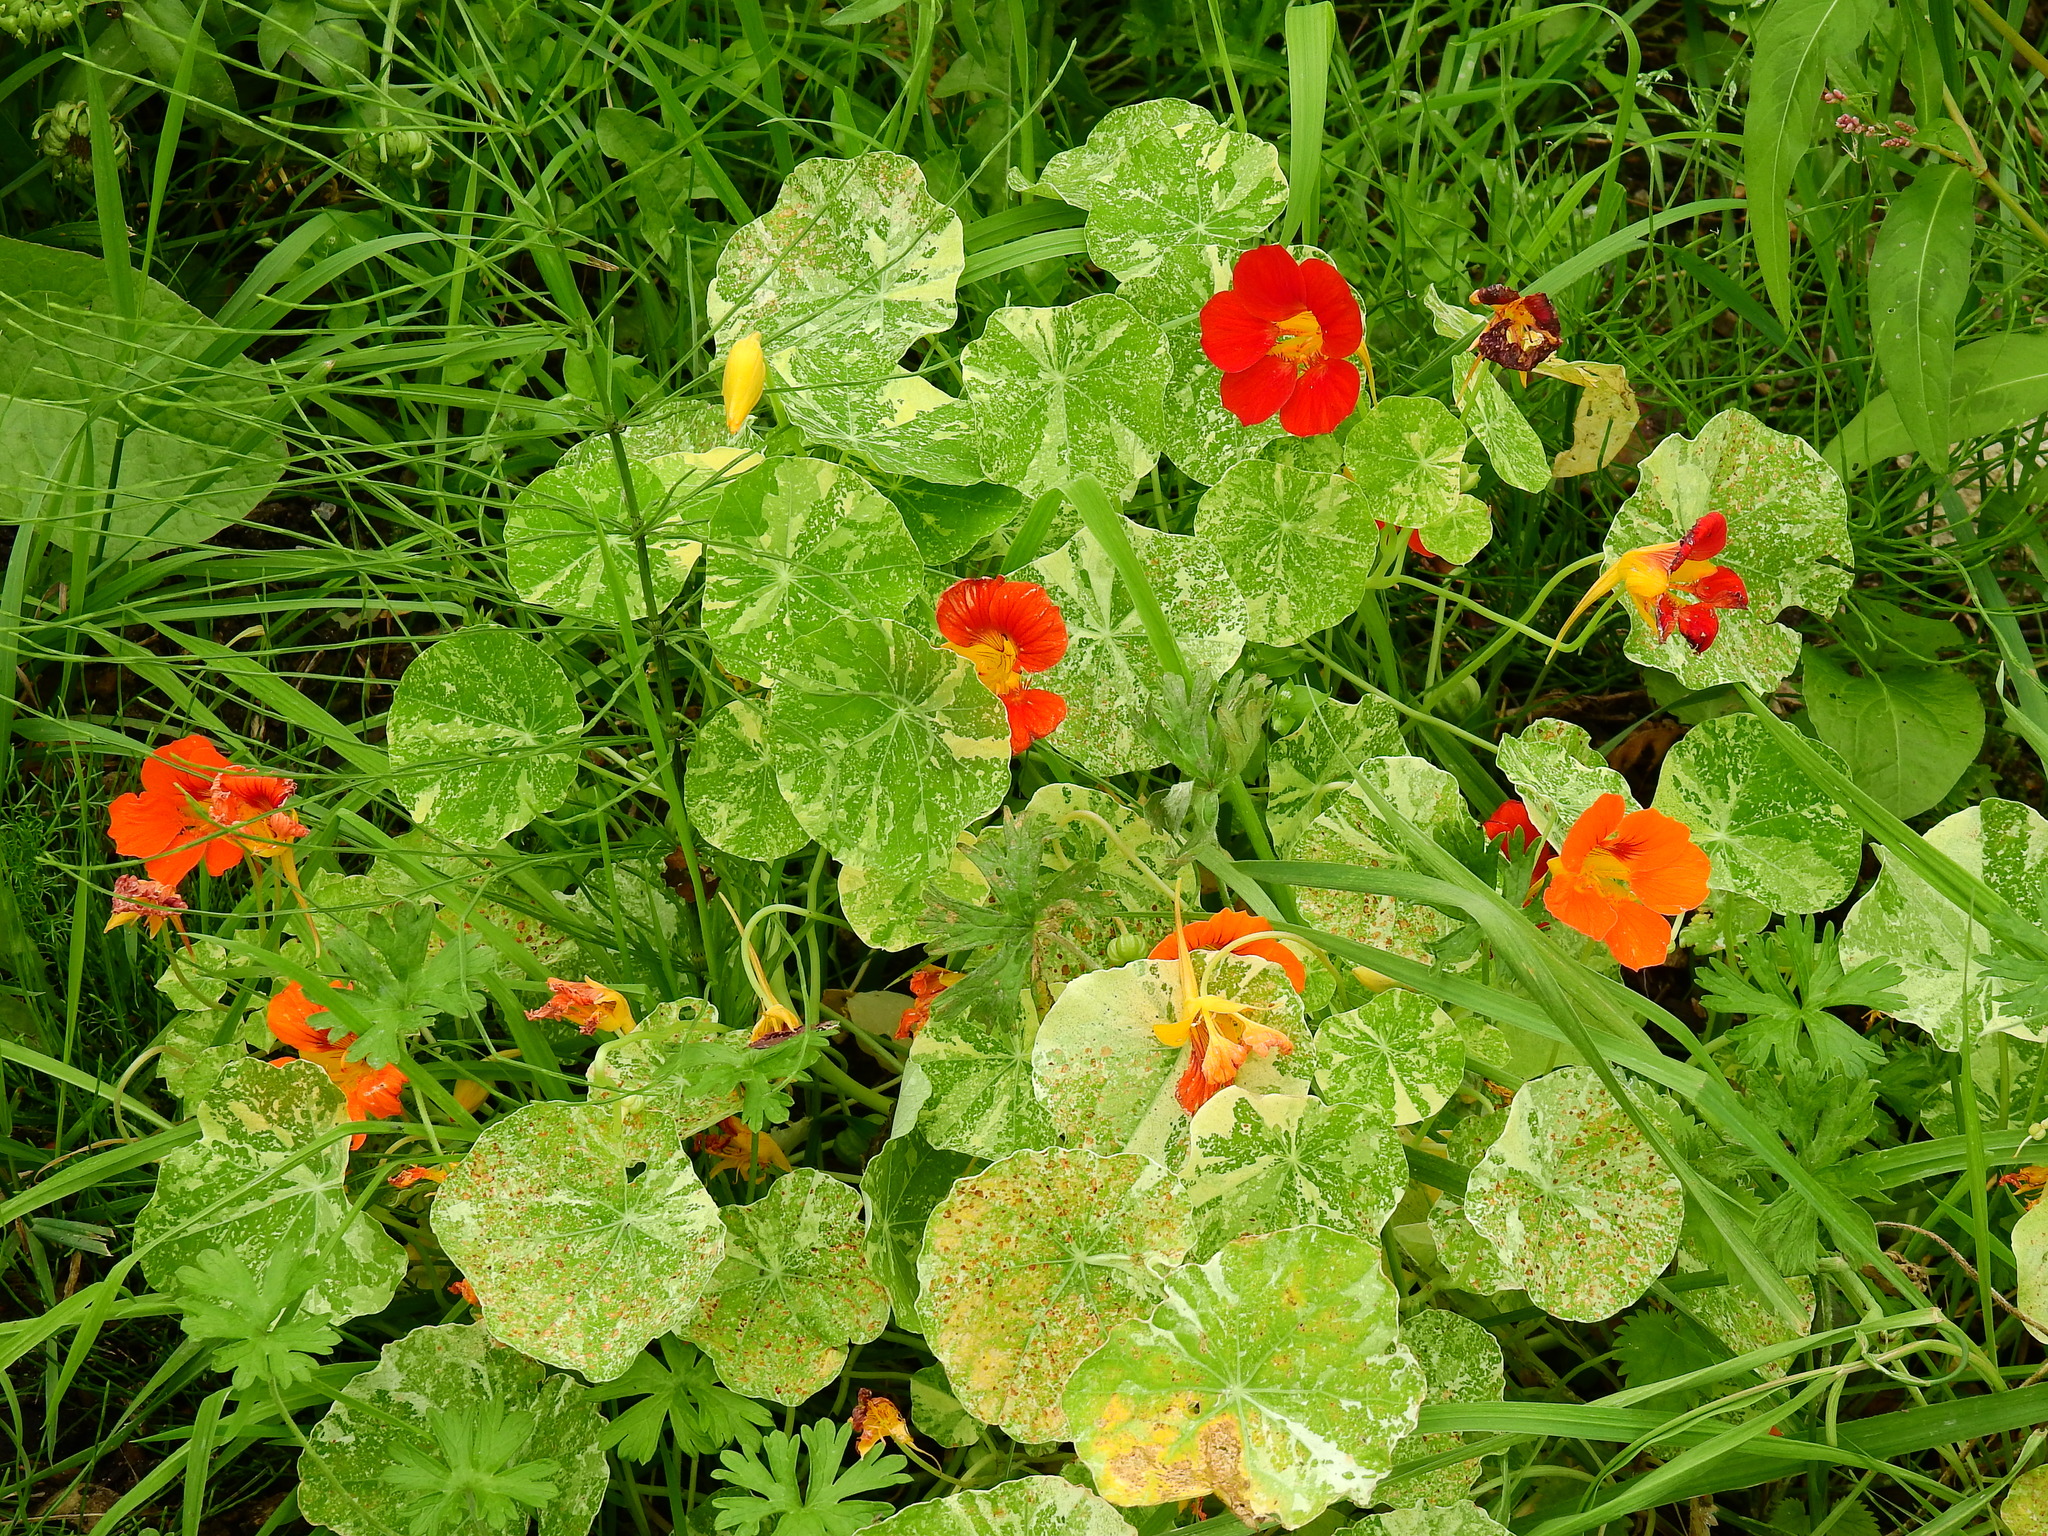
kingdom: Plantae
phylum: Tracheophyta
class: Magnoliopsida
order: Brassicales
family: Tropaeolaceae
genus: Tropaeolum
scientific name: Tropaeolum majus
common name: Nasturtium
